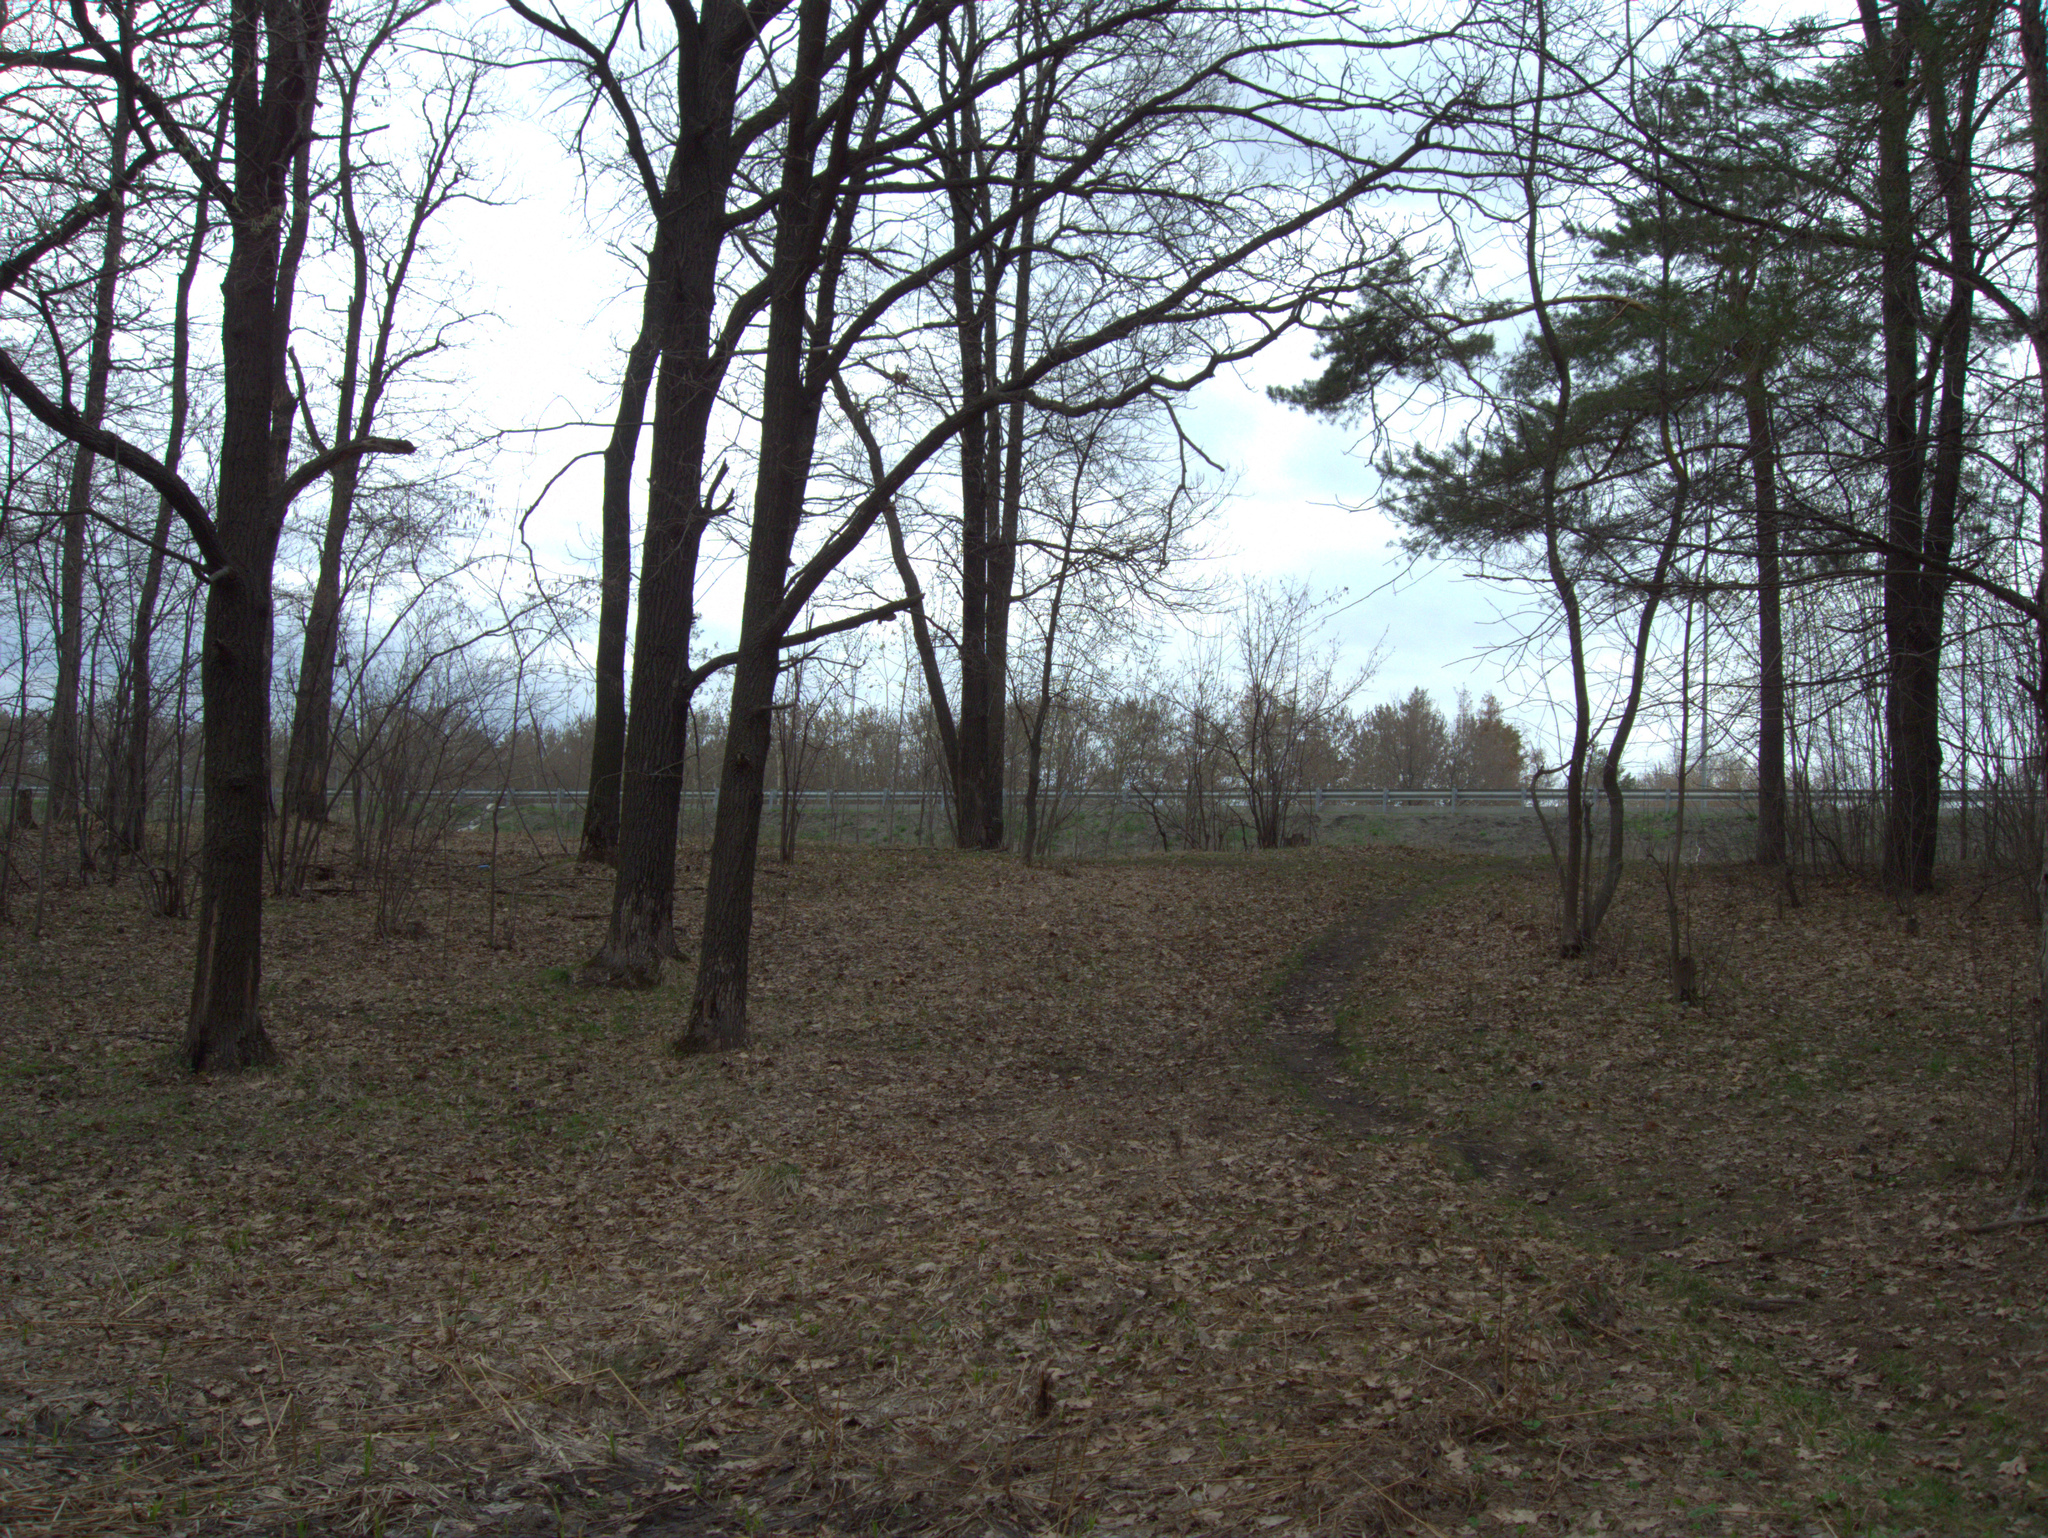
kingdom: Plantae
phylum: Tracheophyta
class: Pinopsida
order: Pinales
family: Pinaceae
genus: Pinus
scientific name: Pinus sylvestris
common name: Scots pine
